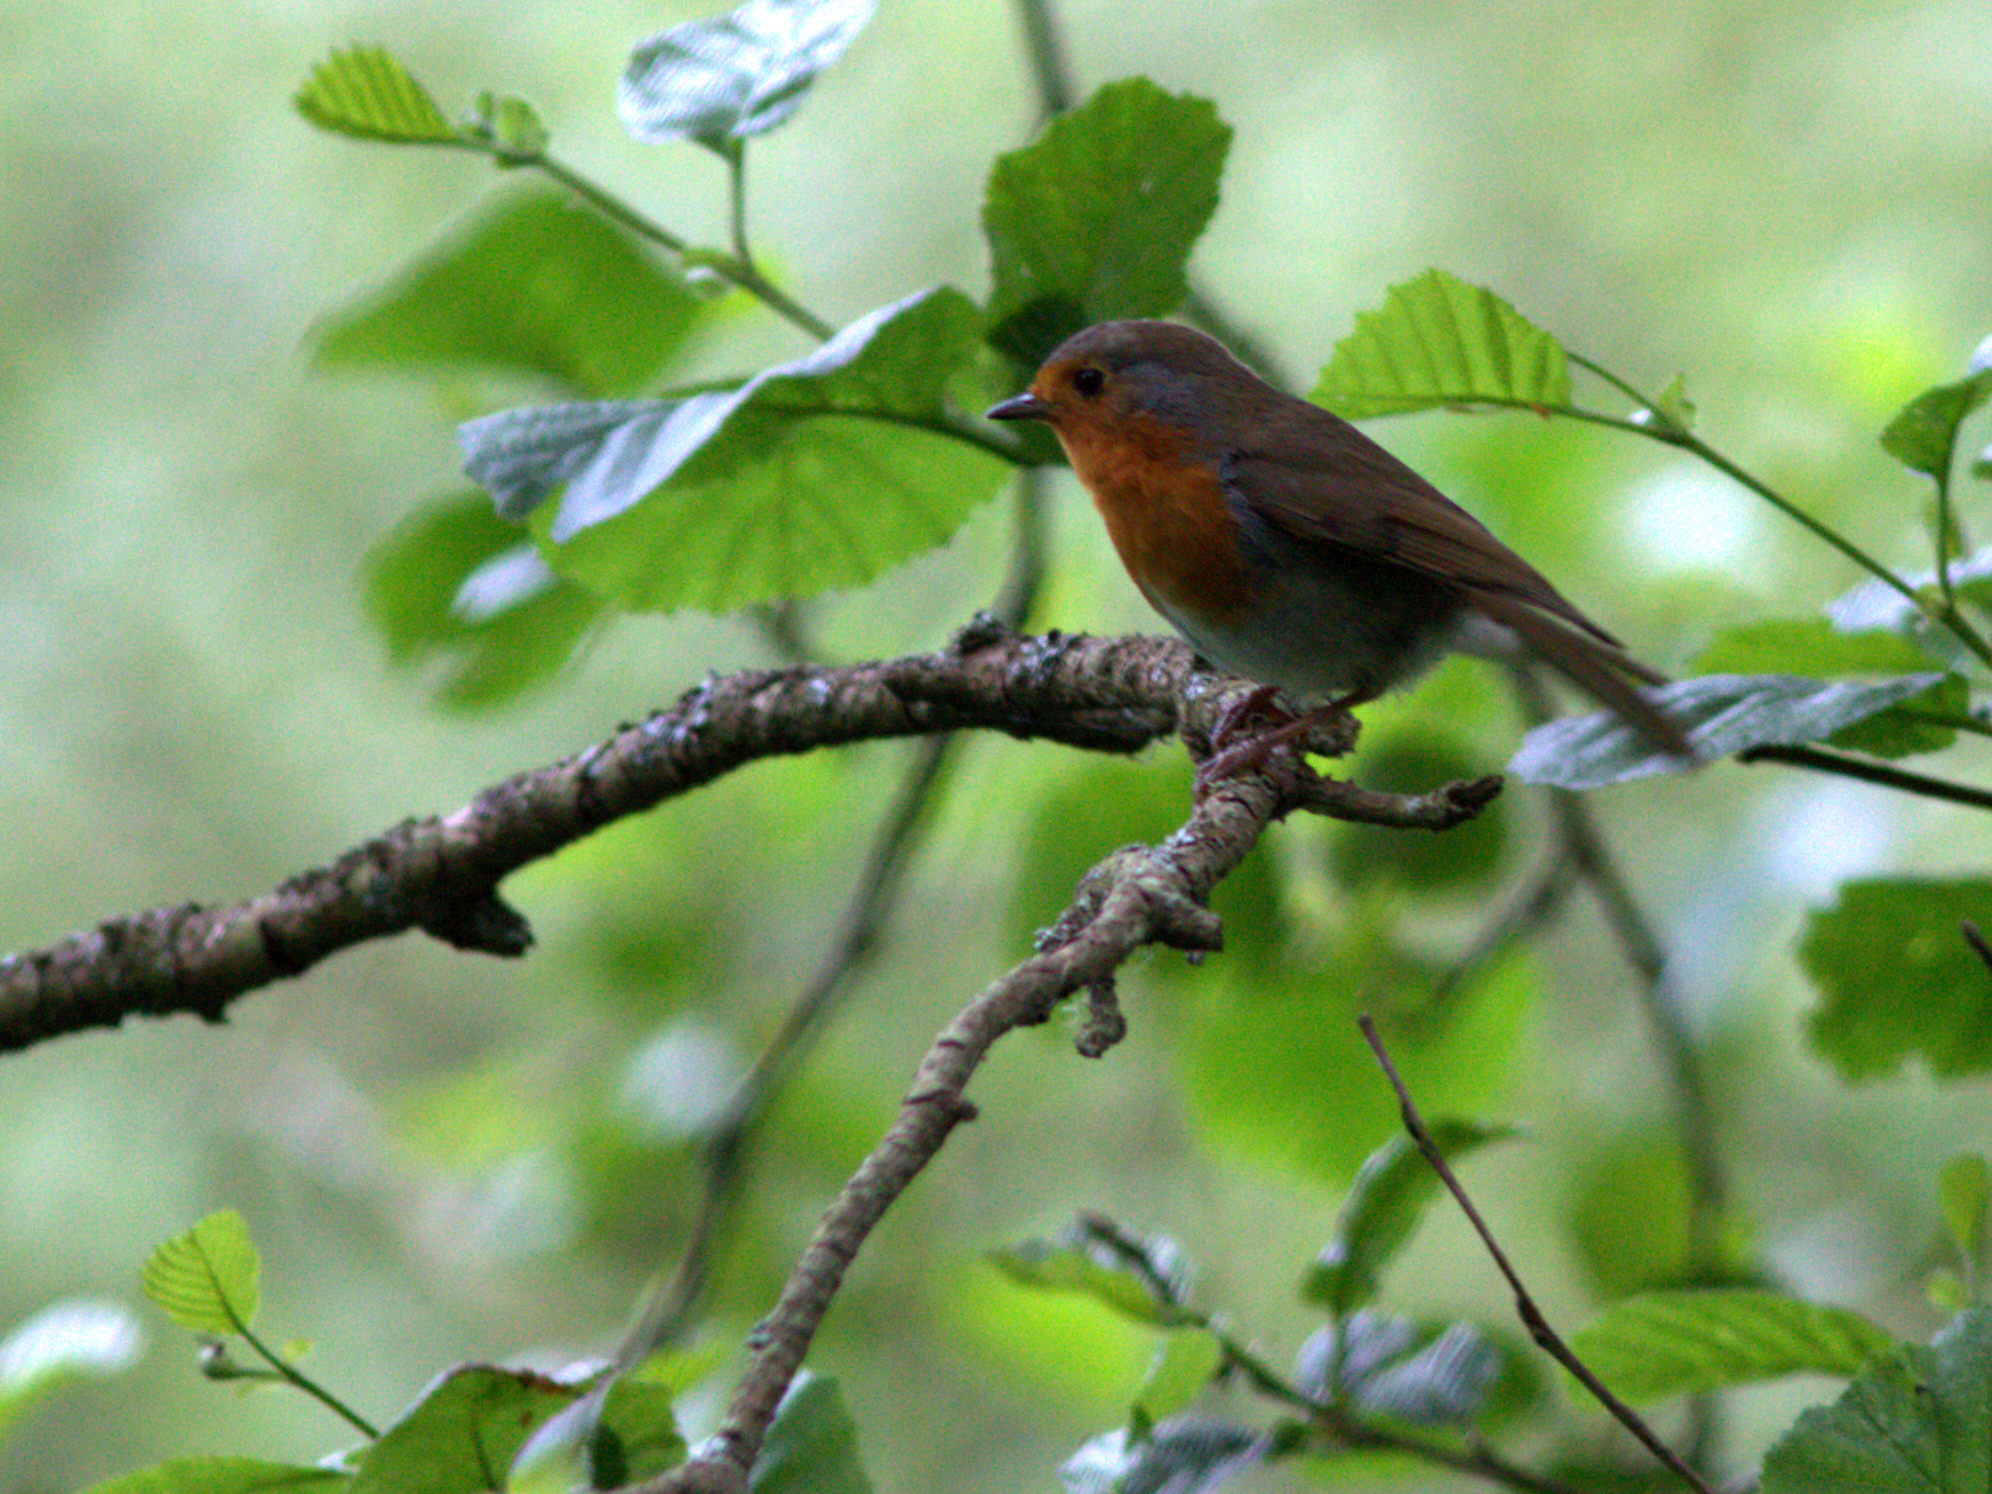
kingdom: Animalia
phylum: Chordata
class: Aves
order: Passeriformes
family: Muscicapidae
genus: Erithacus
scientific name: Erithacus rubecula
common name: European robin
